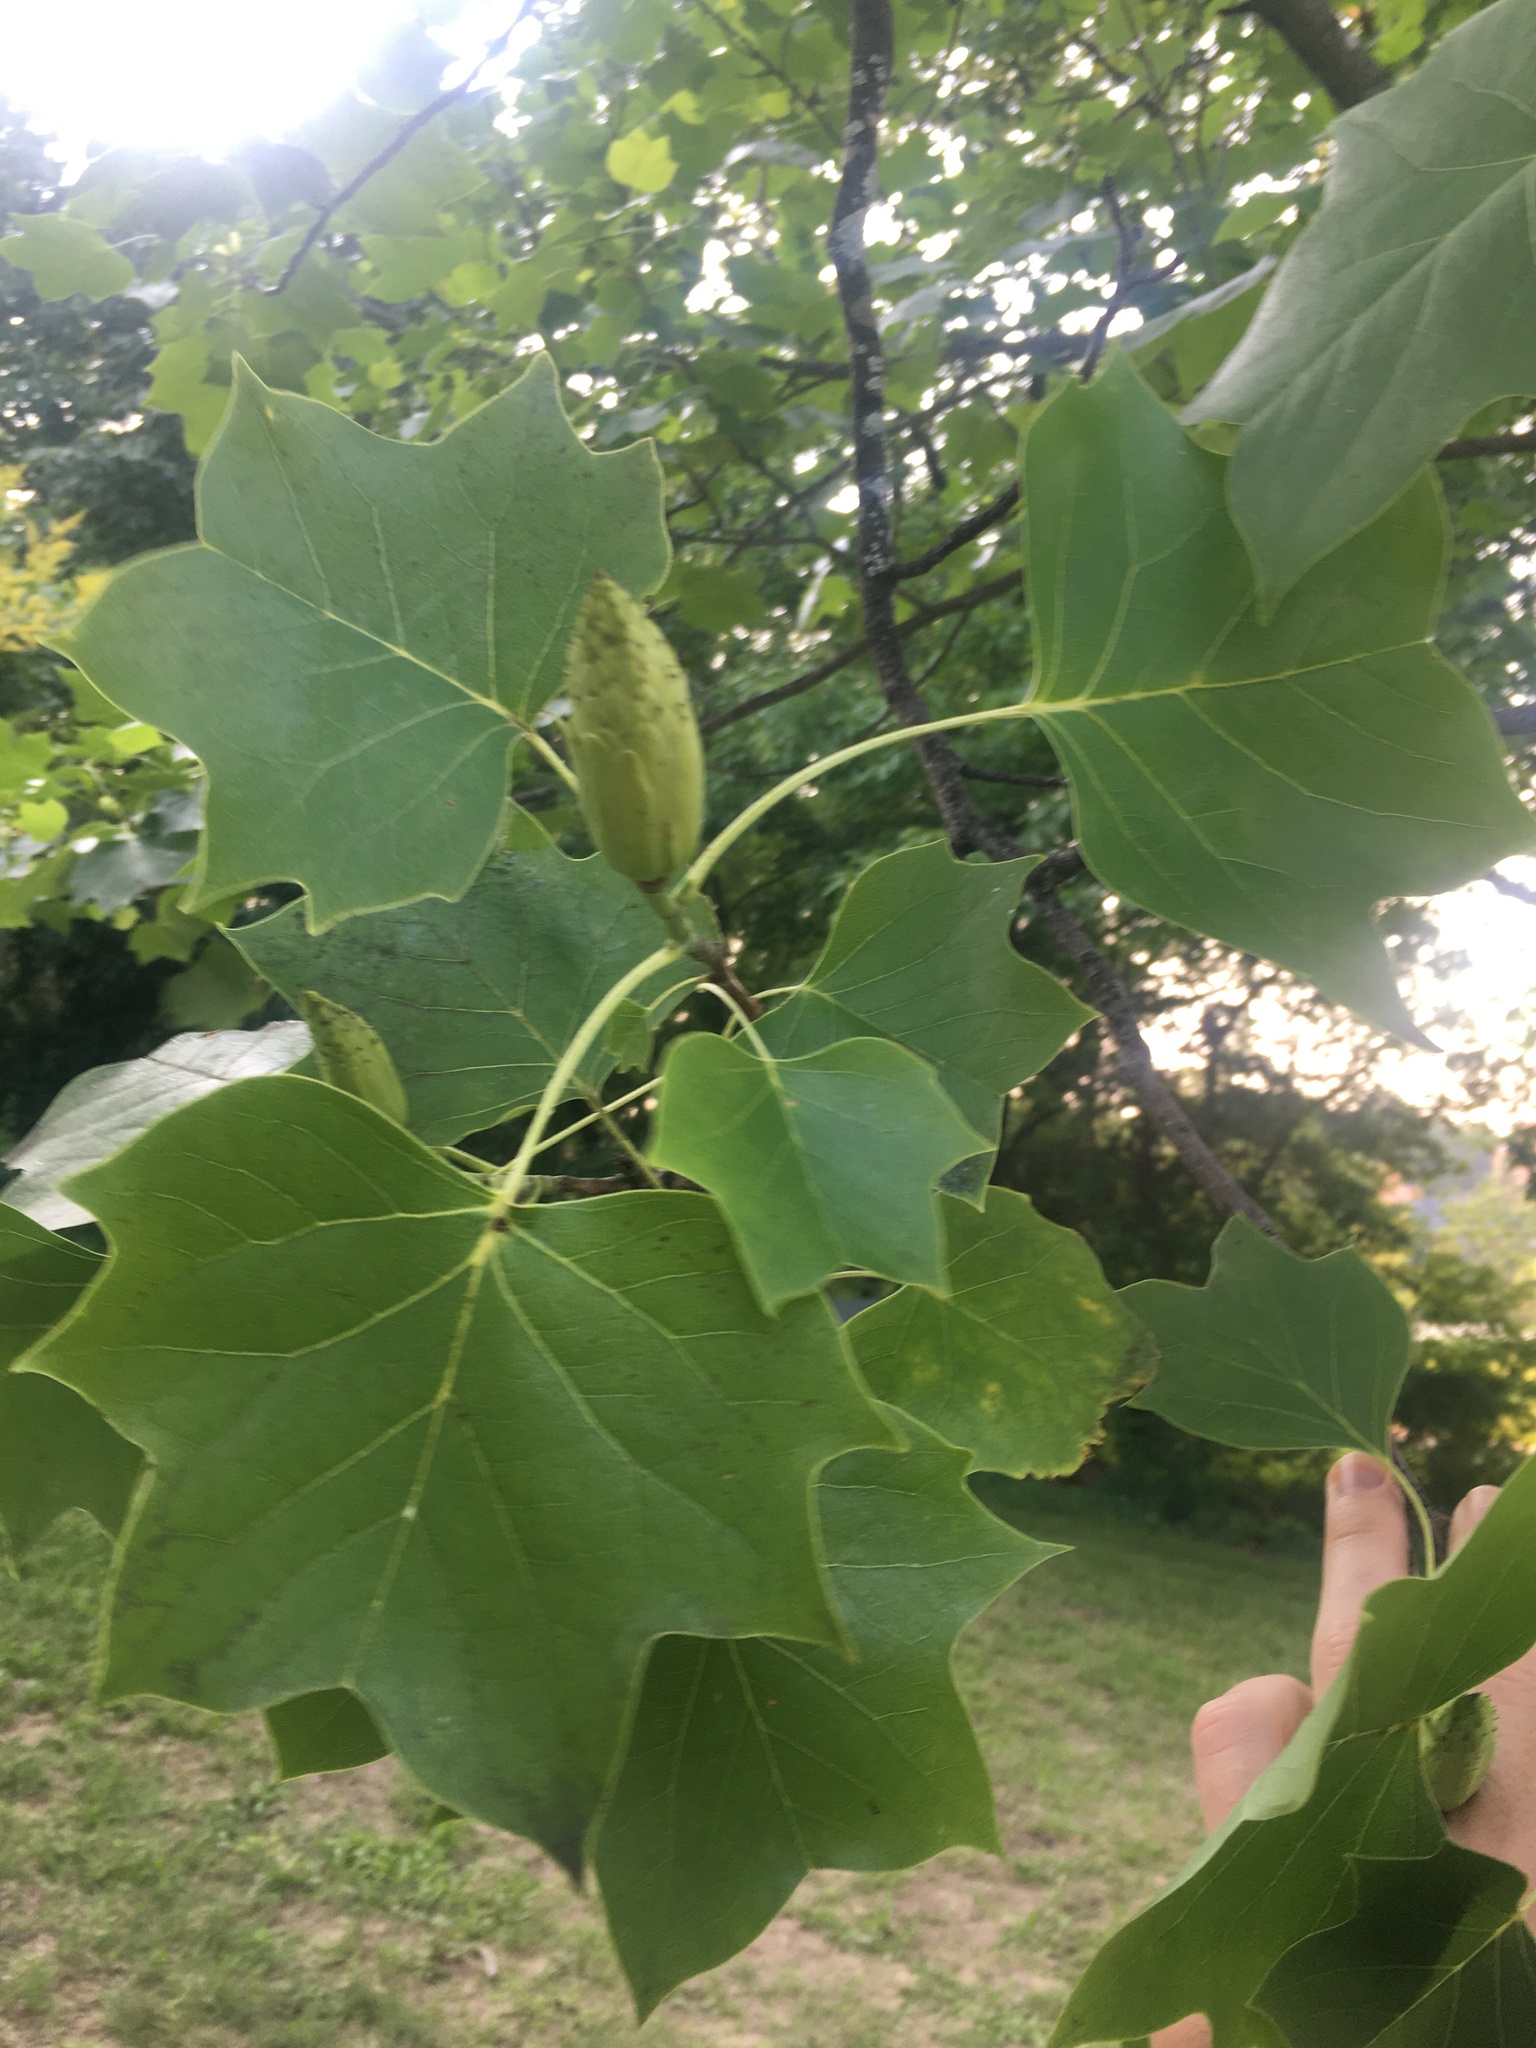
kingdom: Plantae
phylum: Tracheophyta
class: Magnoliopsida
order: Magnoliales
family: Magnoliaceae
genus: Liriodendron
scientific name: Liriodendron tulipifera
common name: Tulip tree
